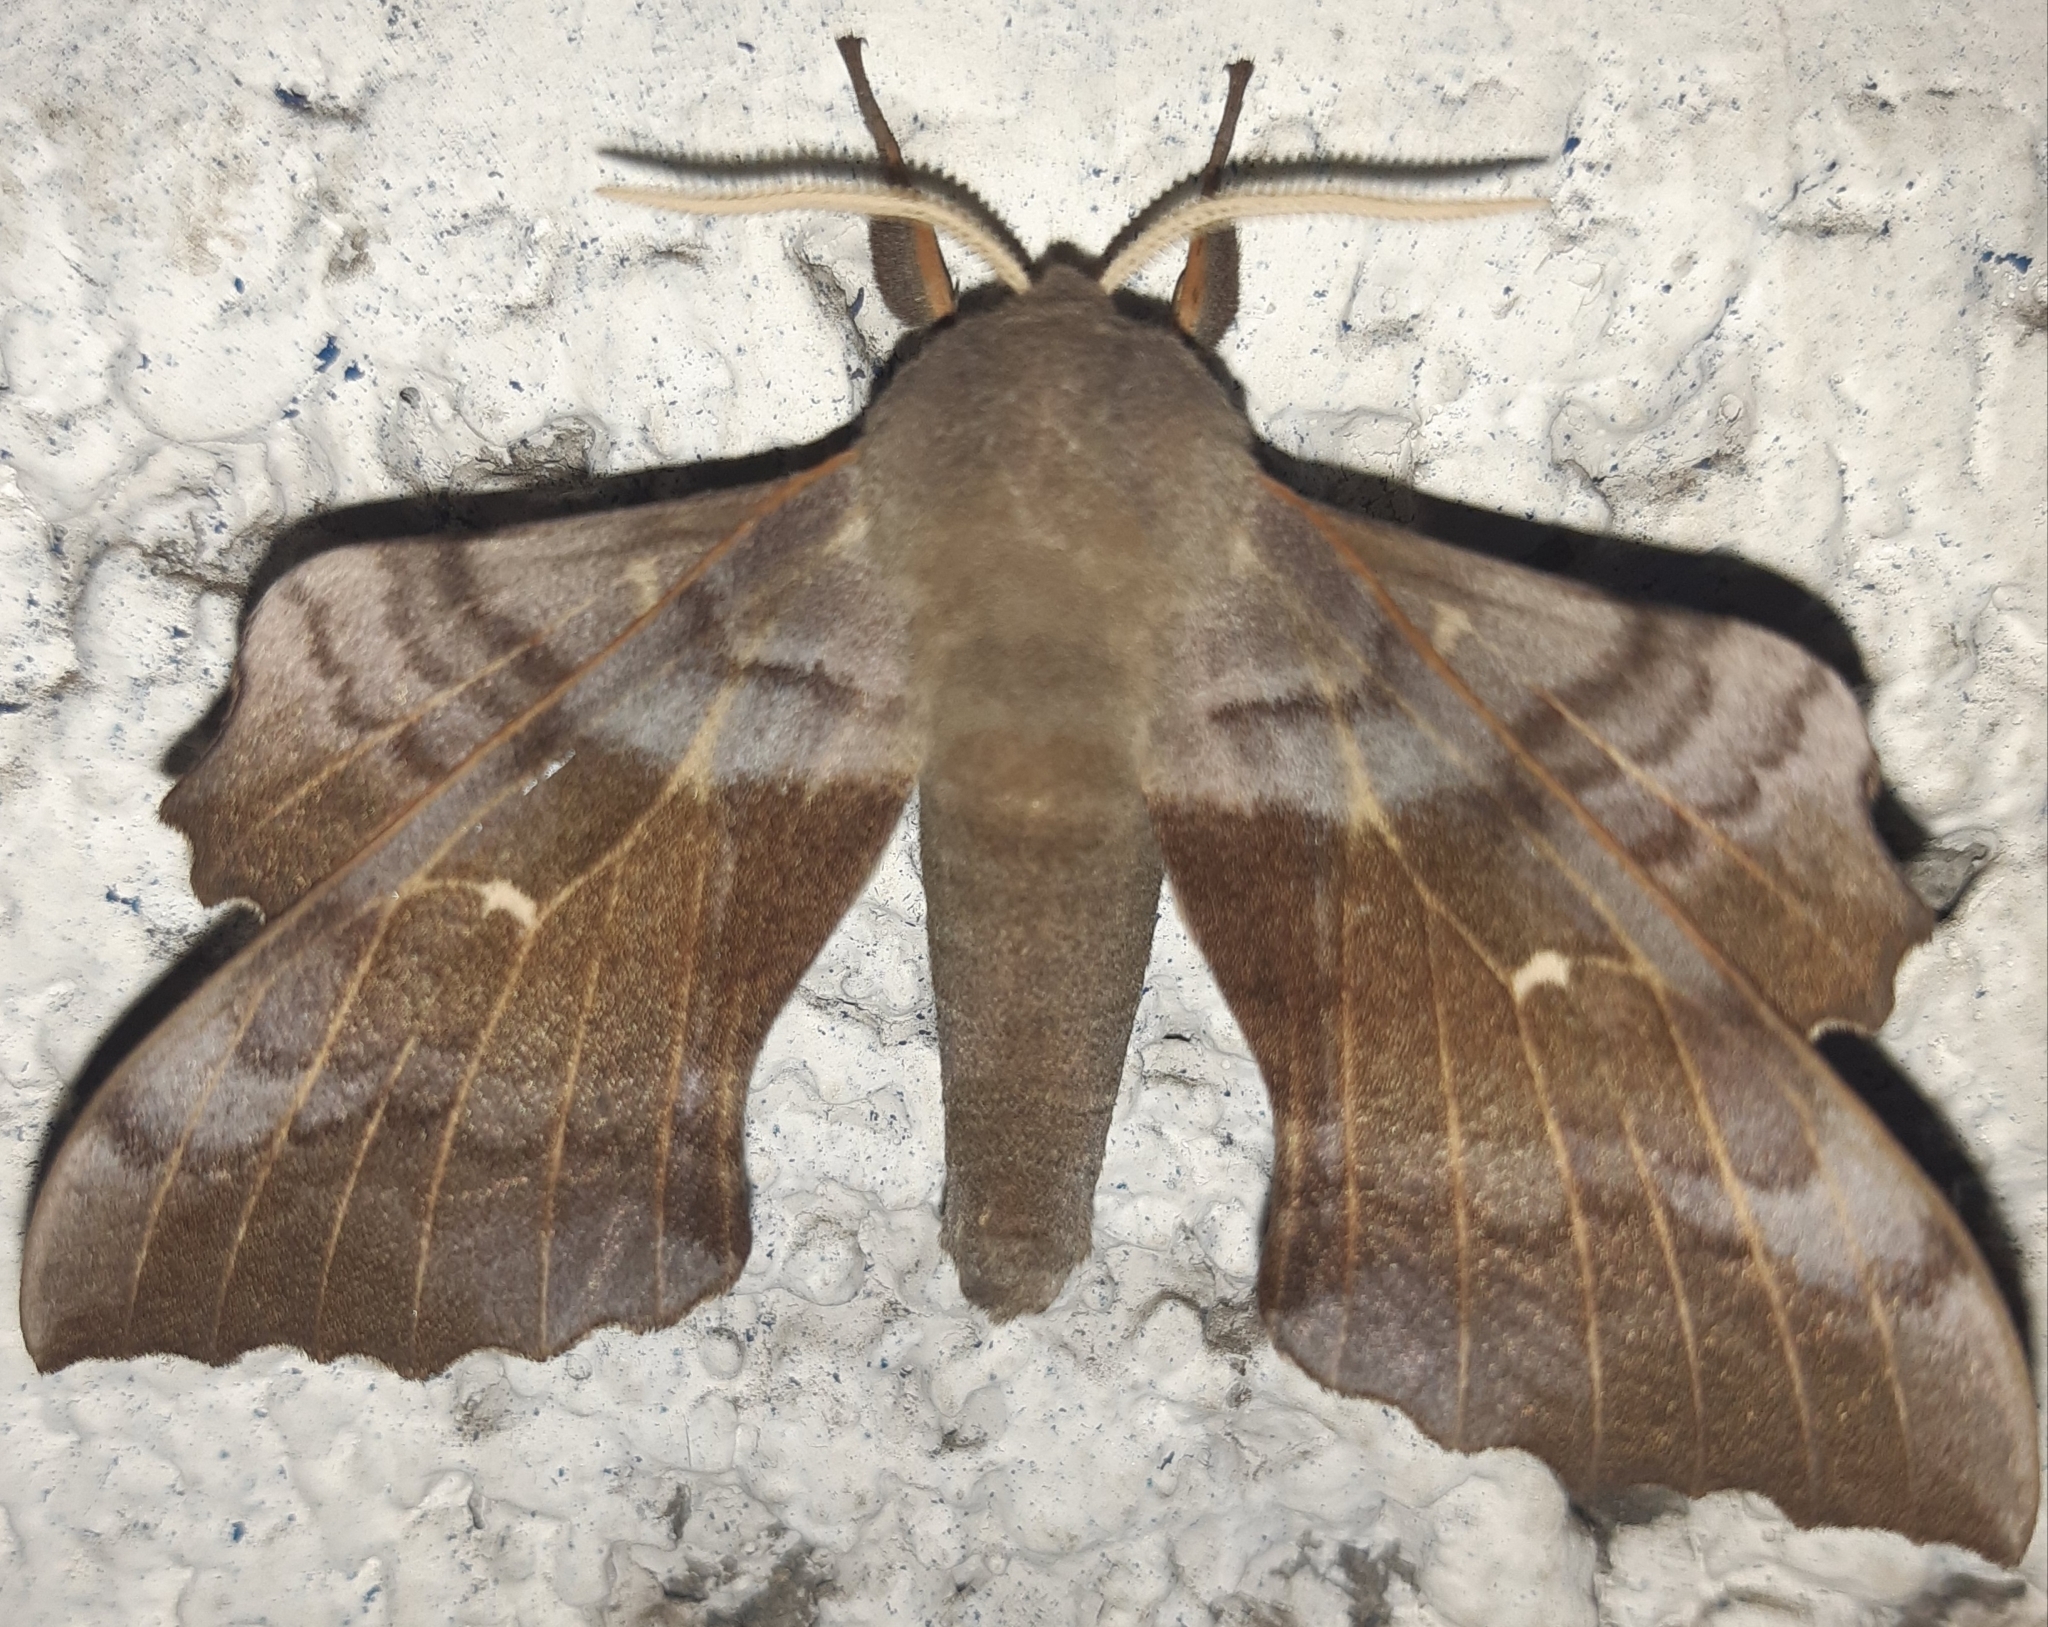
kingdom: Animalia
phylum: Arthropoda
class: Insecta
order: Lepidoptera
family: Sphingidae
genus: Laothoe
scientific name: Laothoe populi
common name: Poplar hawk-moth
